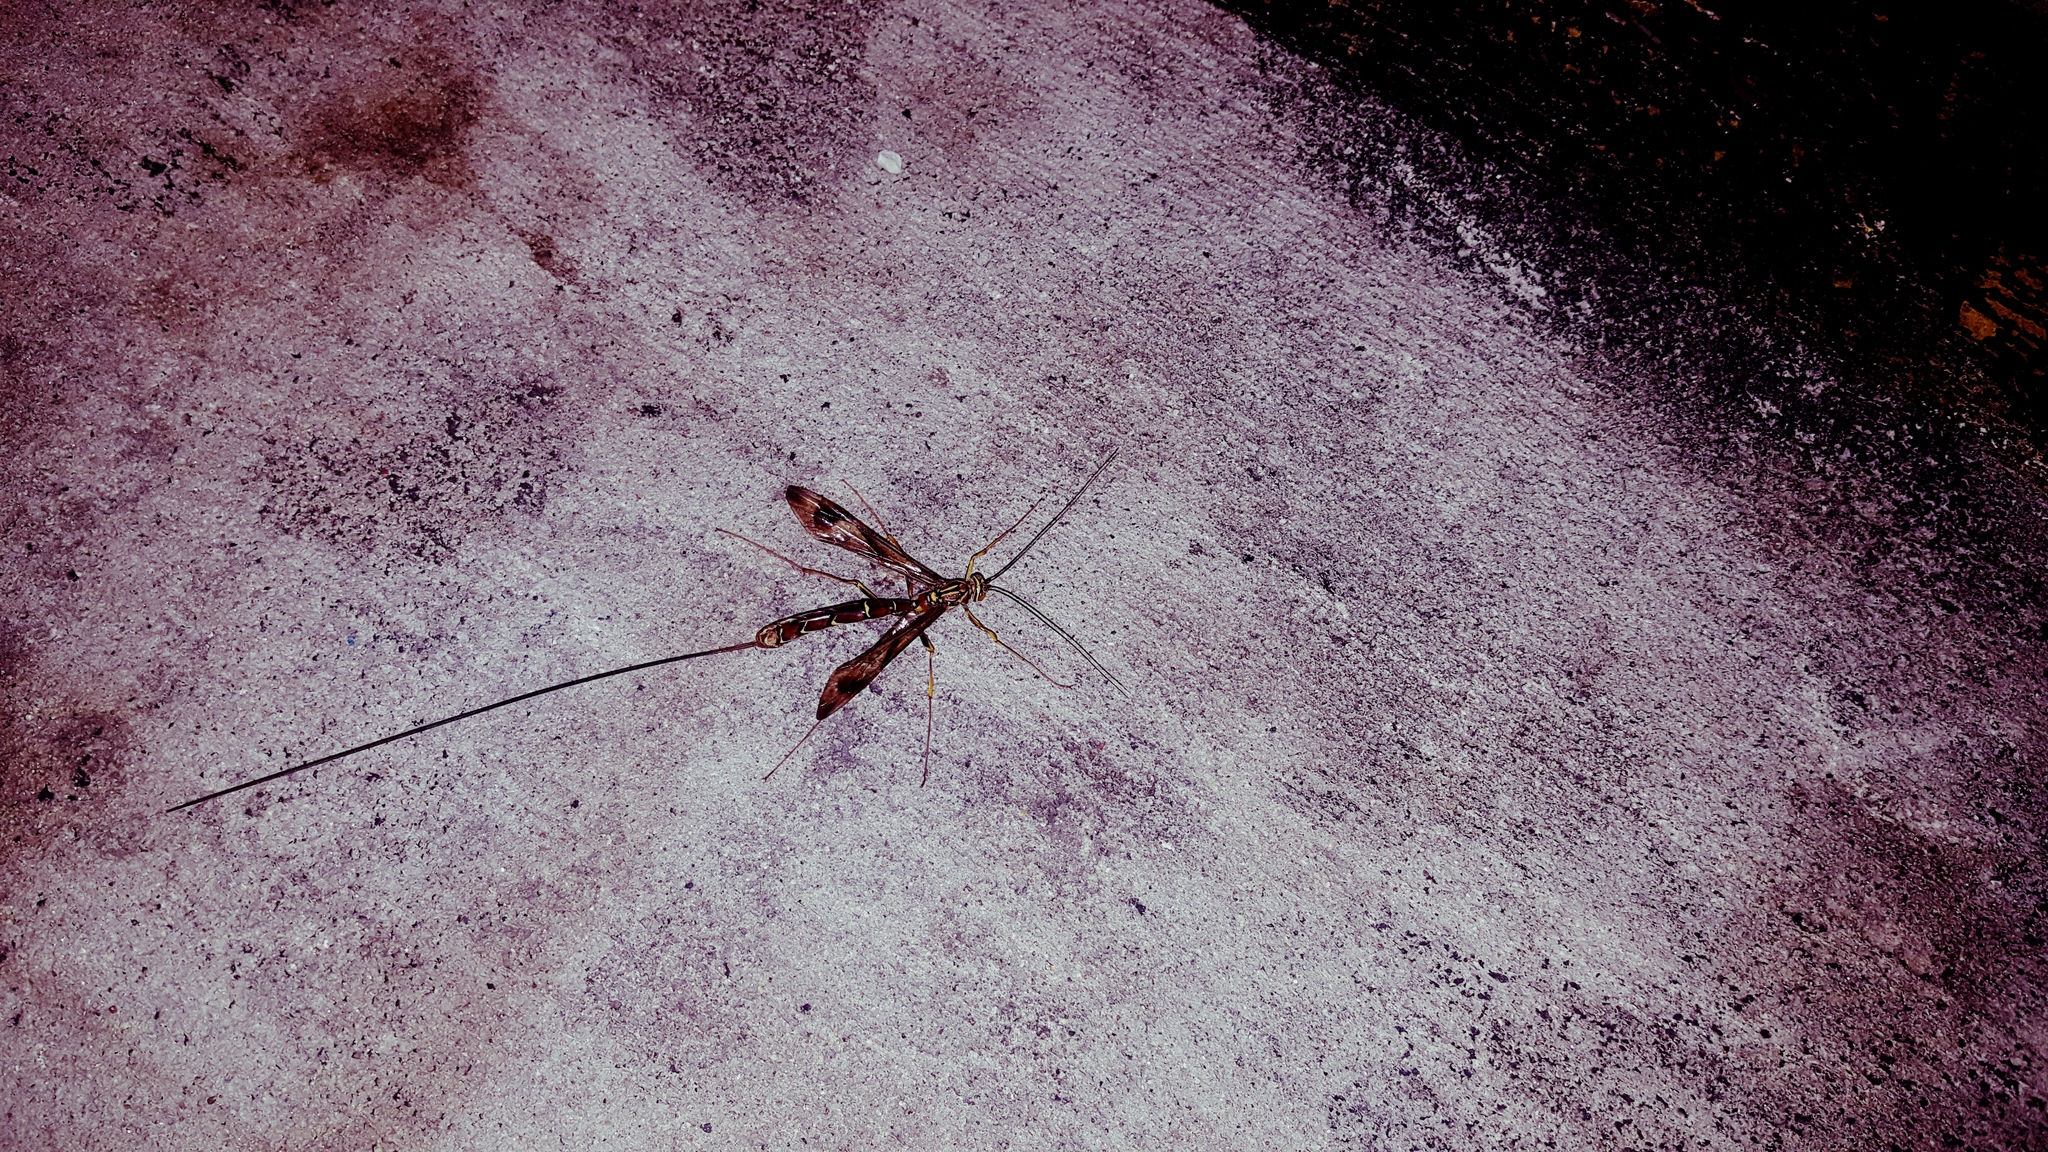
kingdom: Animalia
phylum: Arthropoda
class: Insecta
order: Hymenoptera
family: Ichneumonidae
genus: Megarhyssa
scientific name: Megarhyssa macrura
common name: Long-tailed giant ichneumonid wasp
